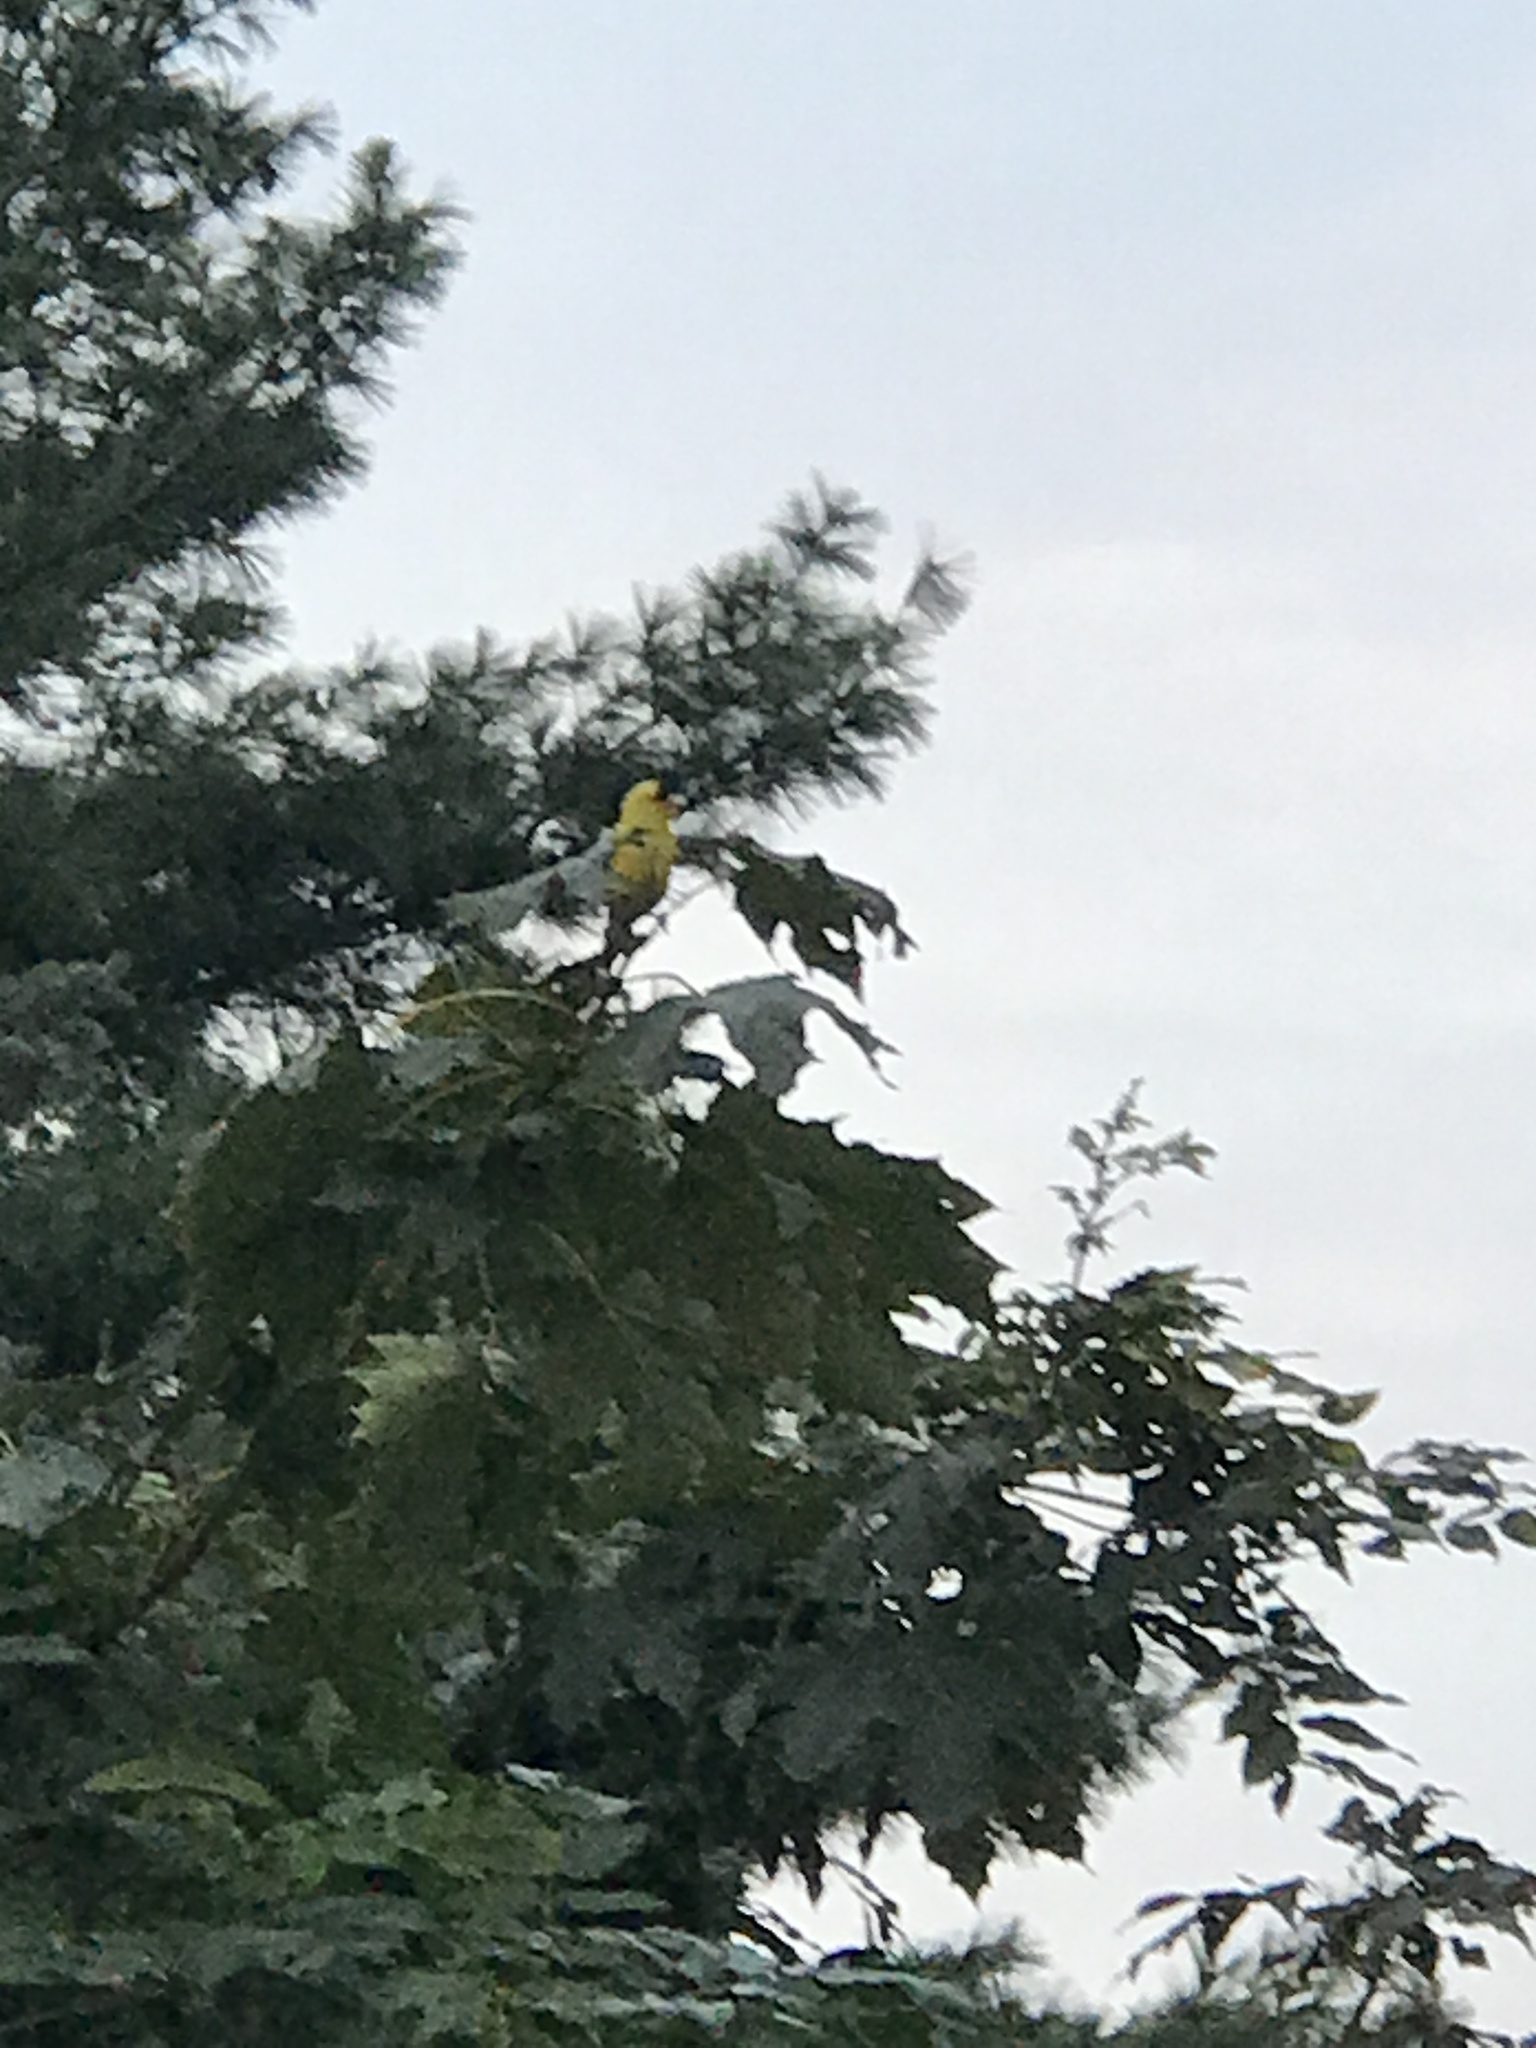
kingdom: Animalia
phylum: Chordata
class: Aves
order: Passeriformes
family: Fringillidae
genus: Spinus
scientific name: Spinus tristis
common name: American goldfinch
